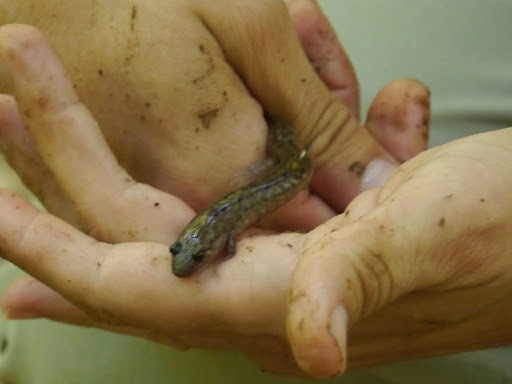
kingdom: Animalia
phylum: Chordata
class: Amphibia
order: Caudata
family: Plethodontidae
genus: Desmognathus
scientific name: Desmognathus monticola
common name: Seal salamander
